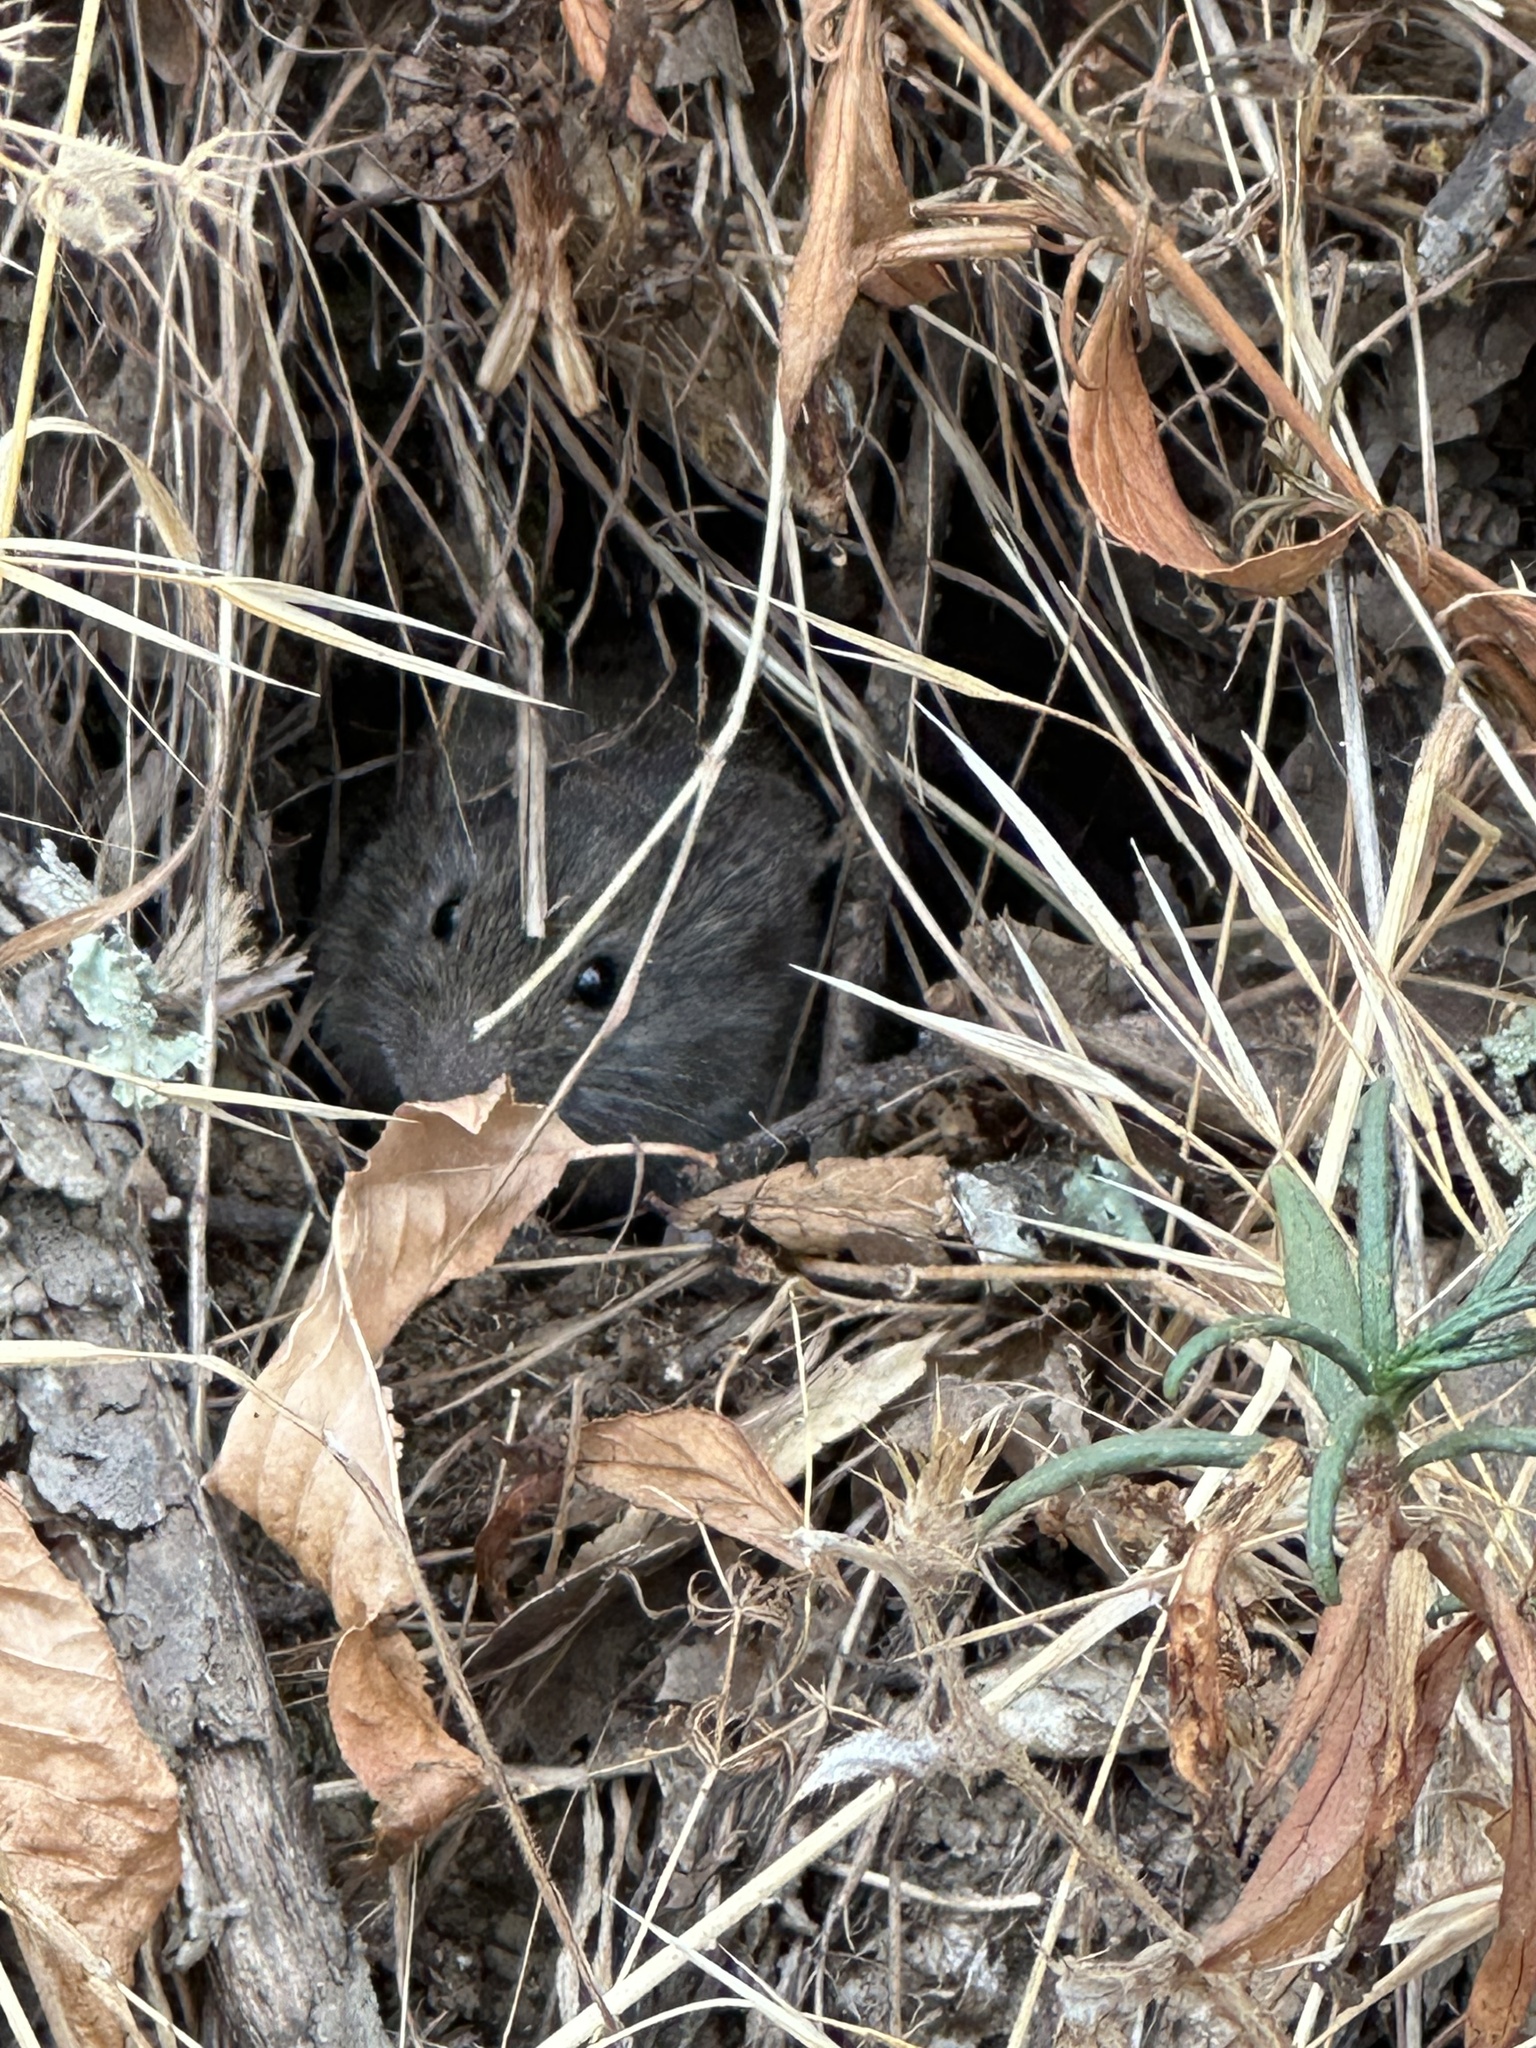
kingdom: Animalia
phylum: Chordata
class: Mammalia
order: Rodentia
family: Cricetidae
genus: Microtus
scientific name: Microtus californicus
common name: California vole
